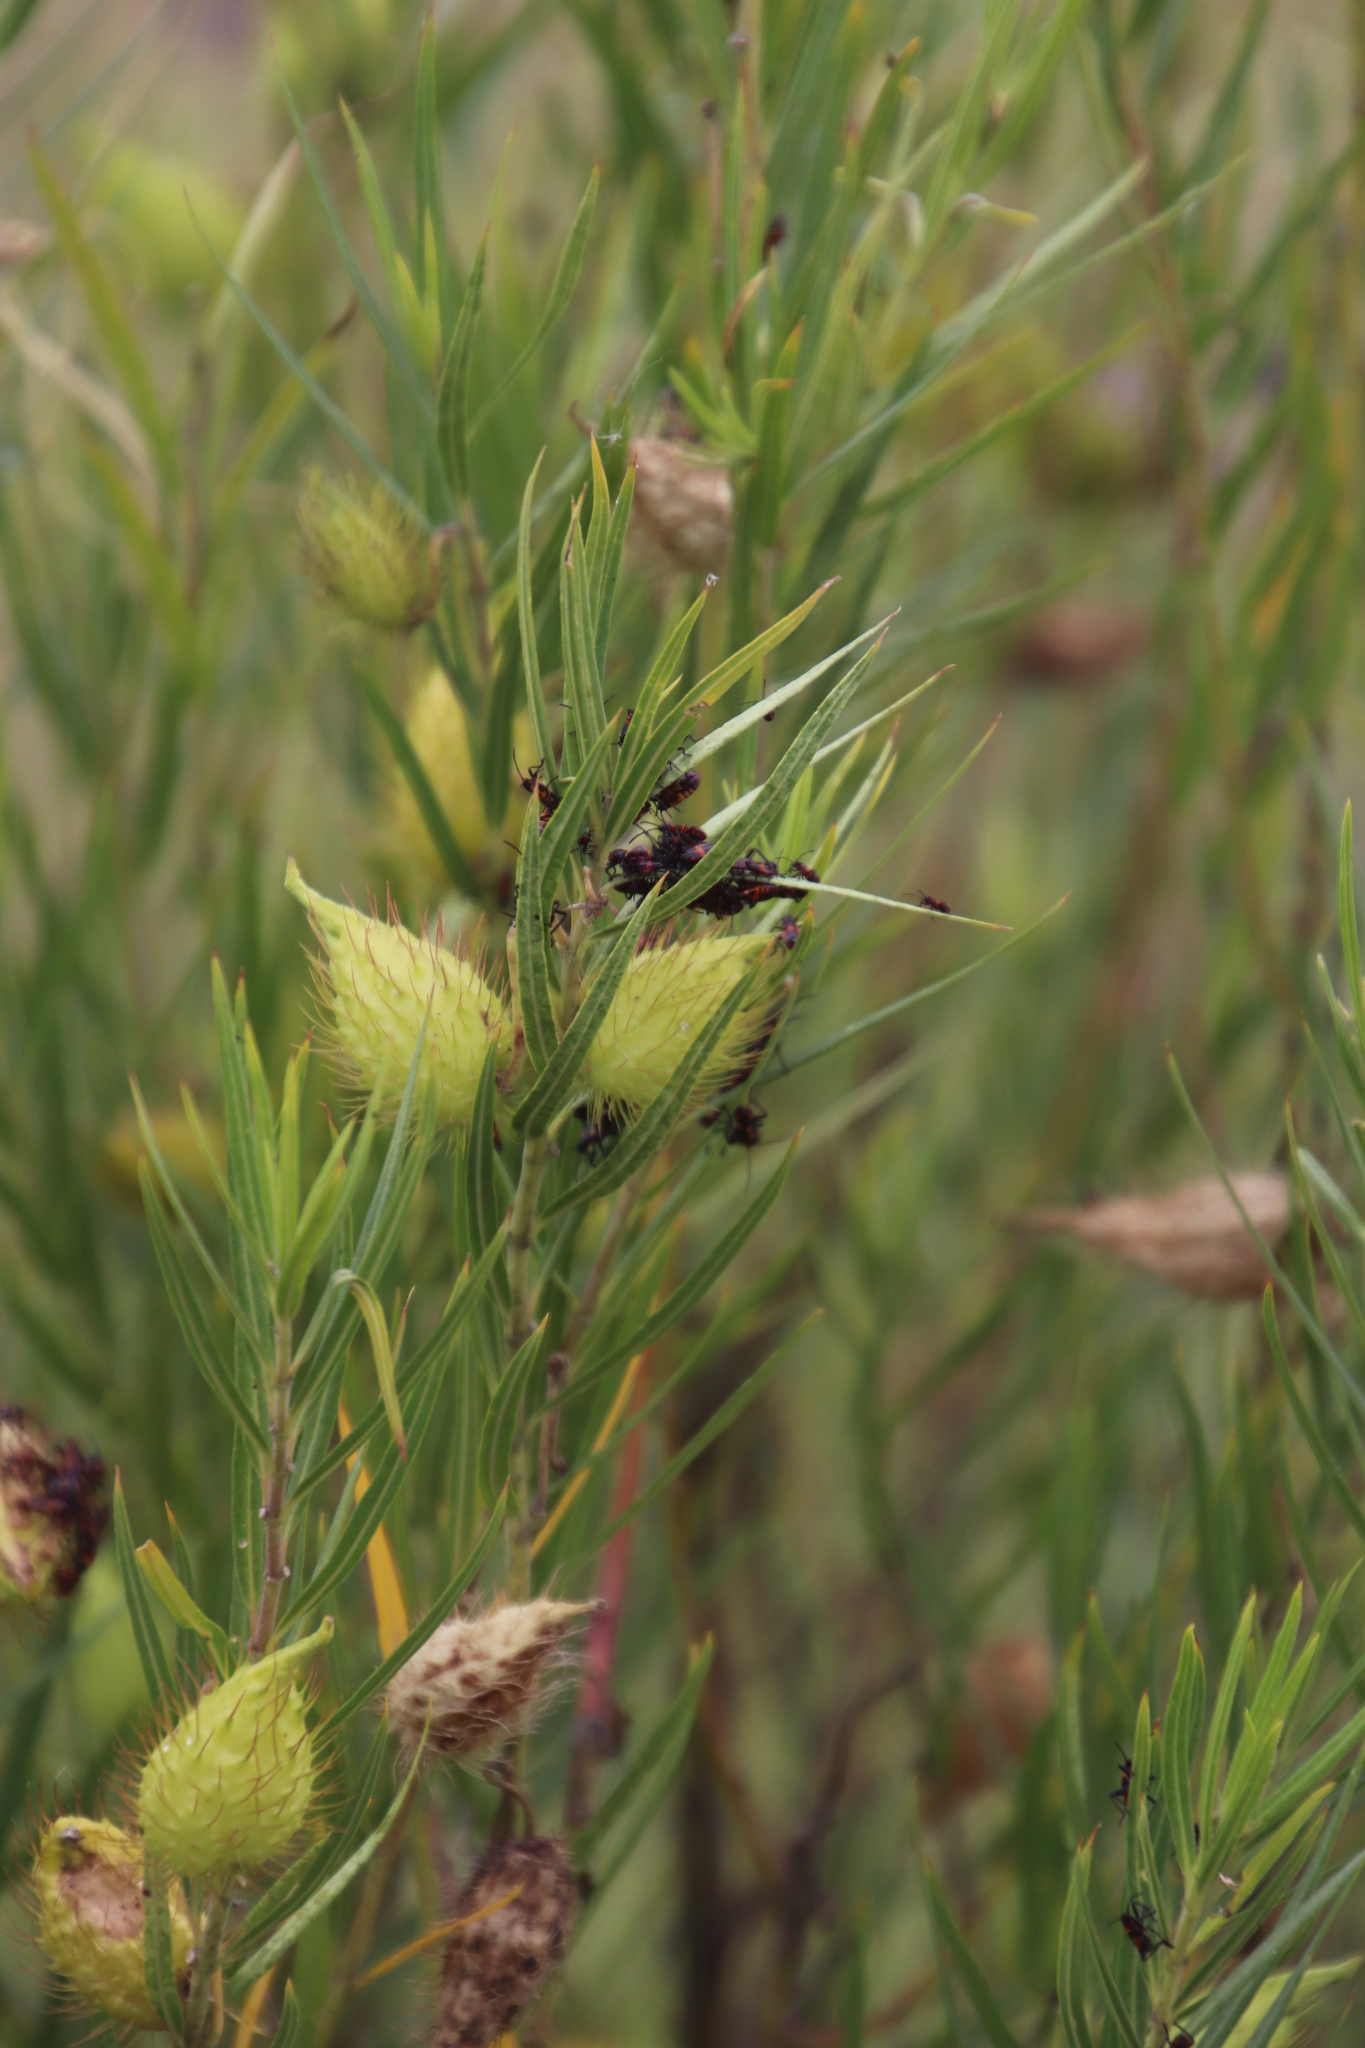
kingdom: Plantae
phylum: Tracheophyta
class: Magnoliopsida
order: Gentianales
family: Apocynaceae
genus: Gomphocarpus
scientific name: Gomphocarpus fruticosus
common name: Milkweed
